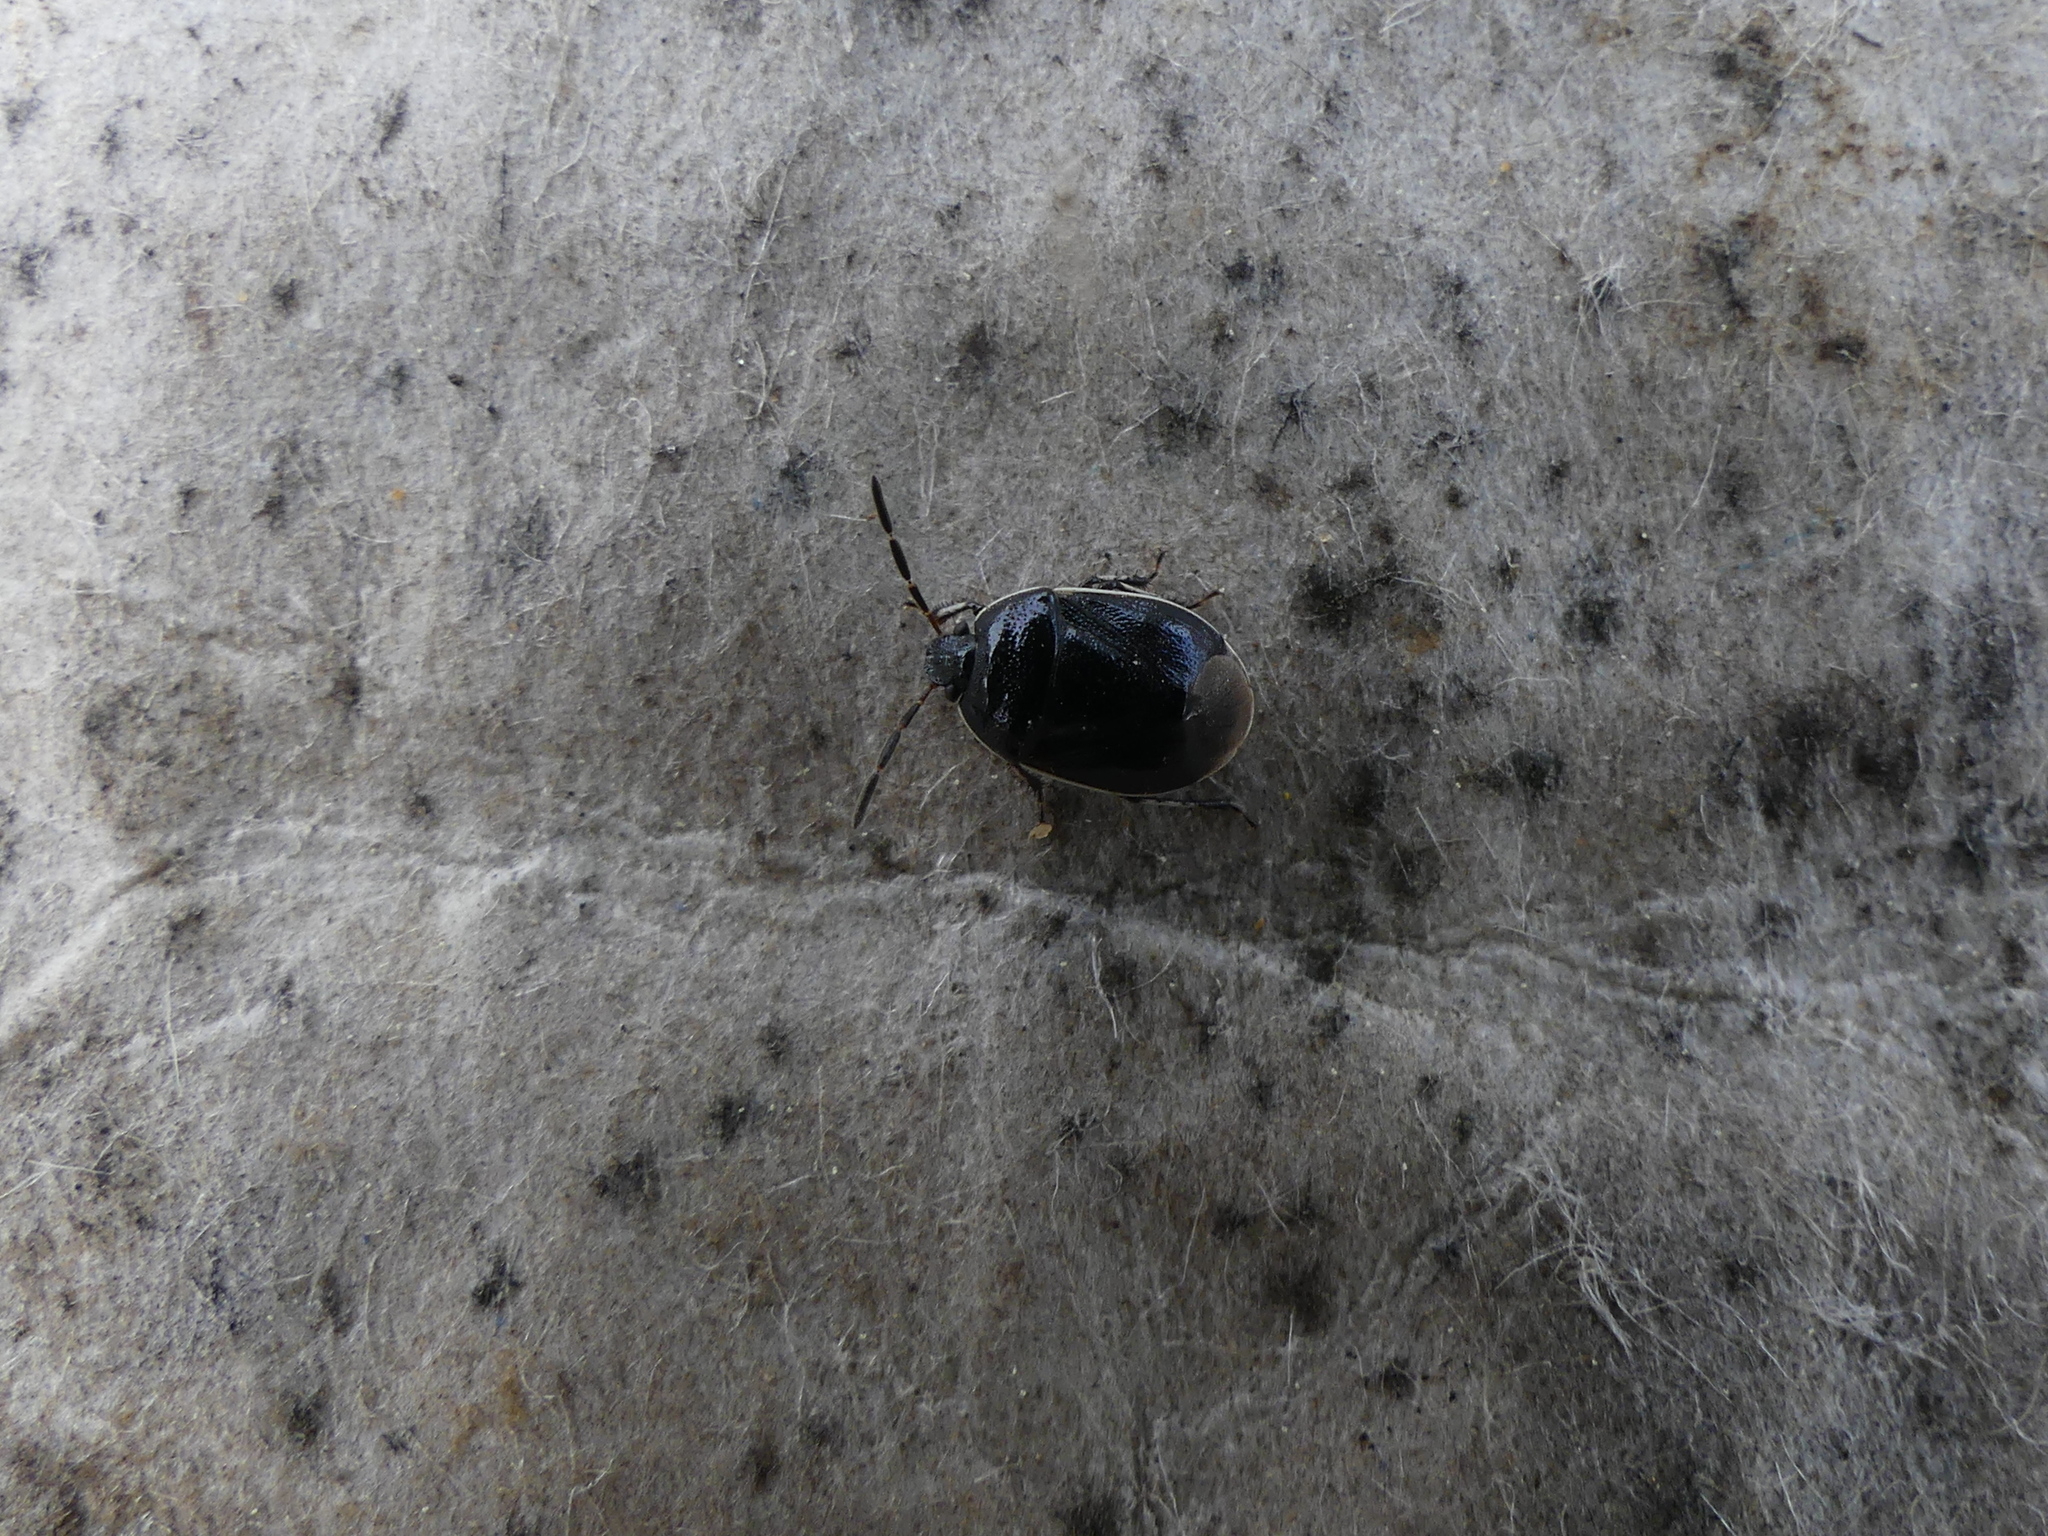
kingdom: Animalia
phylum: Arthropoda
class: Insecta
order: Hemiptera
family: Cydnidae
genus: Sehirus
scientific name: Sehirus cinctus
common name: White-margined burrower bug
